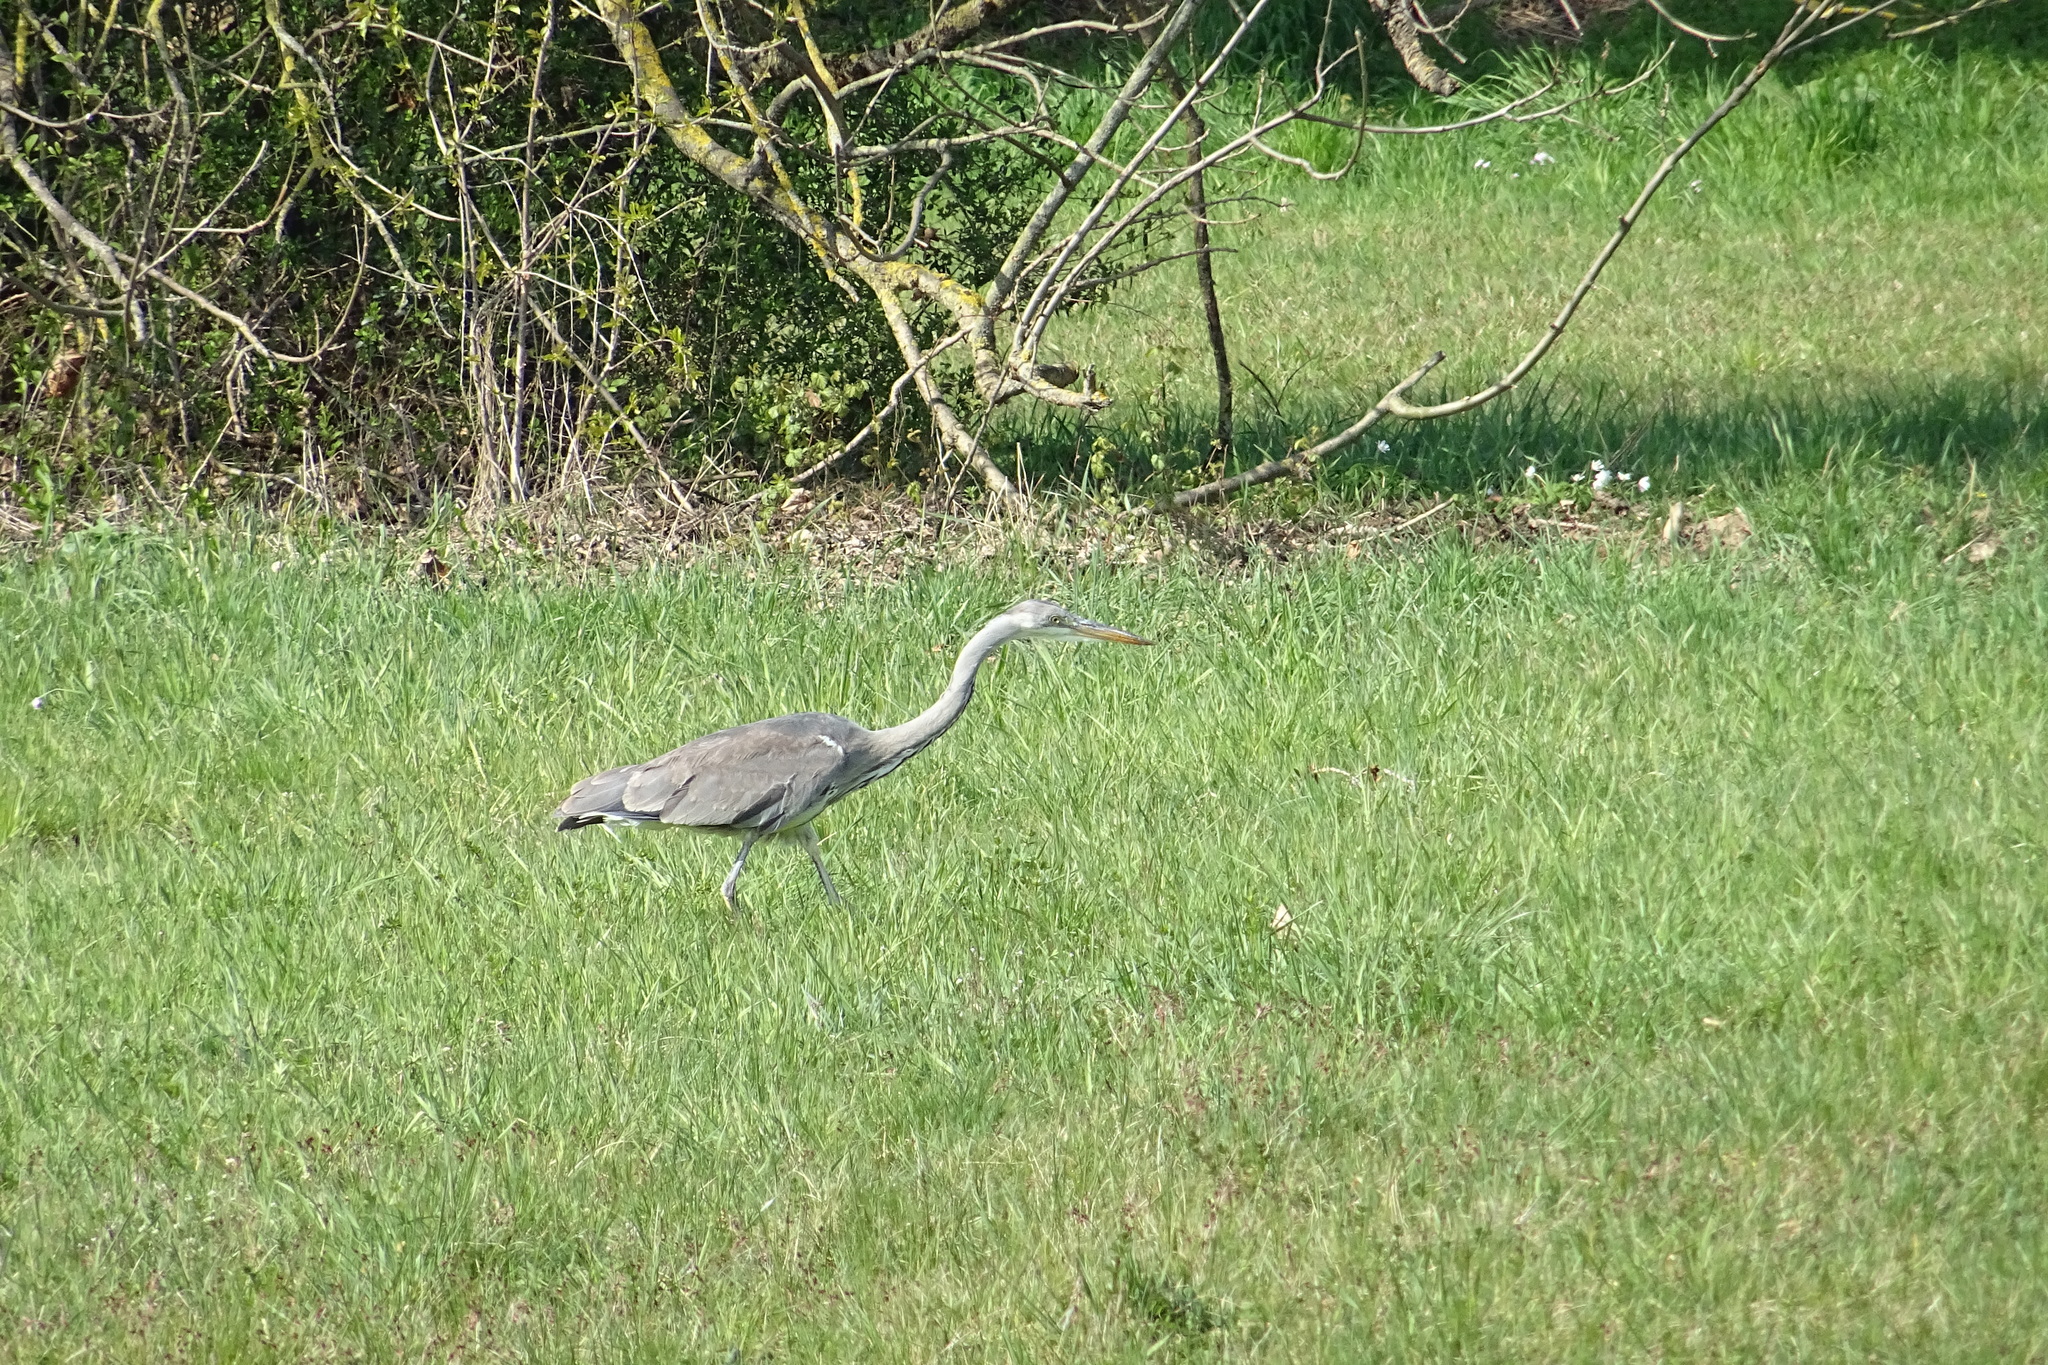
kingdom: Animalia
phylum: Chordata
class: Aves
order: Pelecaniformes
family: Ardeidae
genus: Ardea
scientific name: Ardea cinerea
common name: Grey heron
